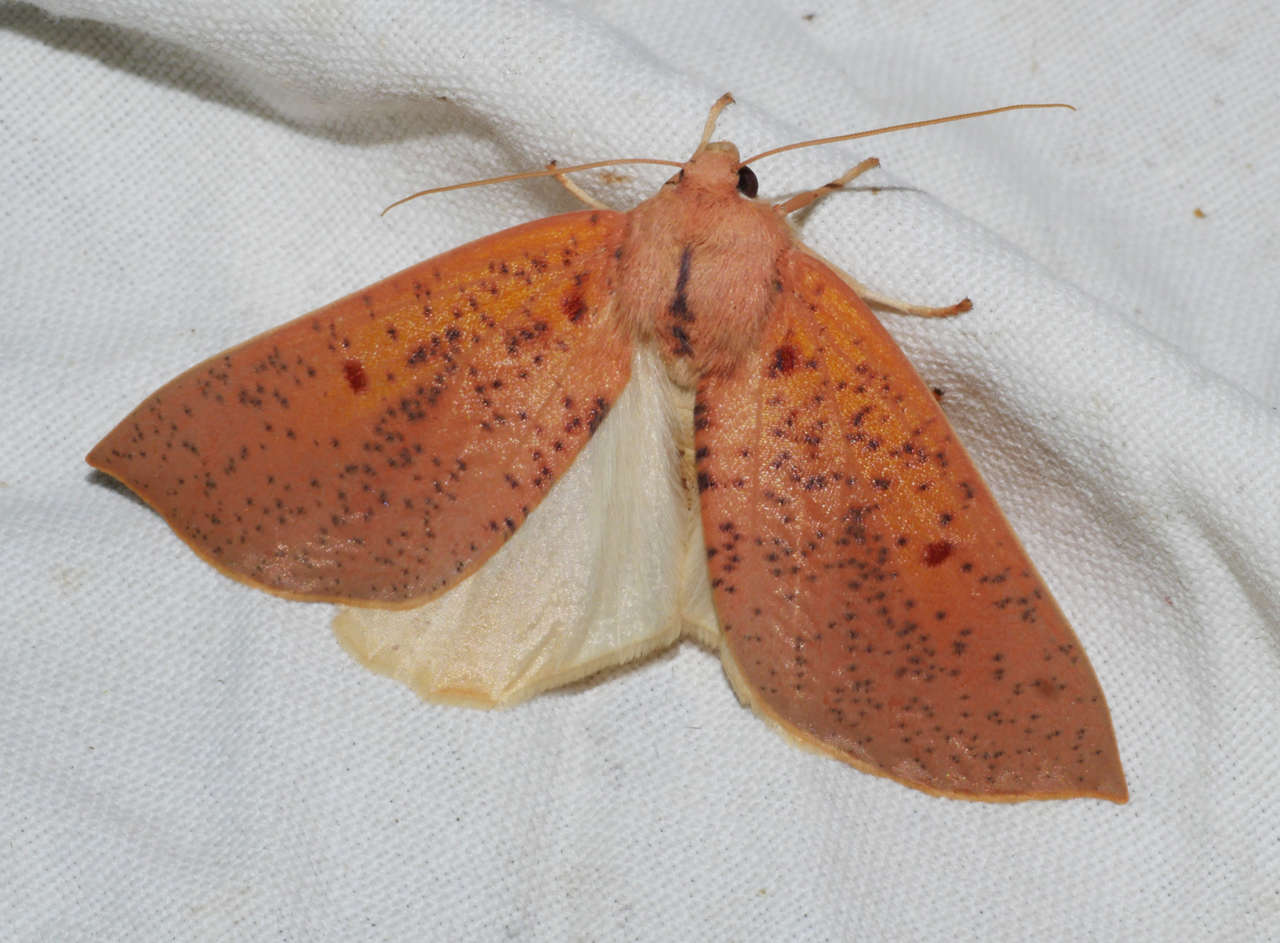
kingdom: Animalia
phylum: Arthropoda
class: Insecta
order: Lepidoptera
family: Geometridae
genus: Plesanemma
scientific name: Plesanemma fucata
